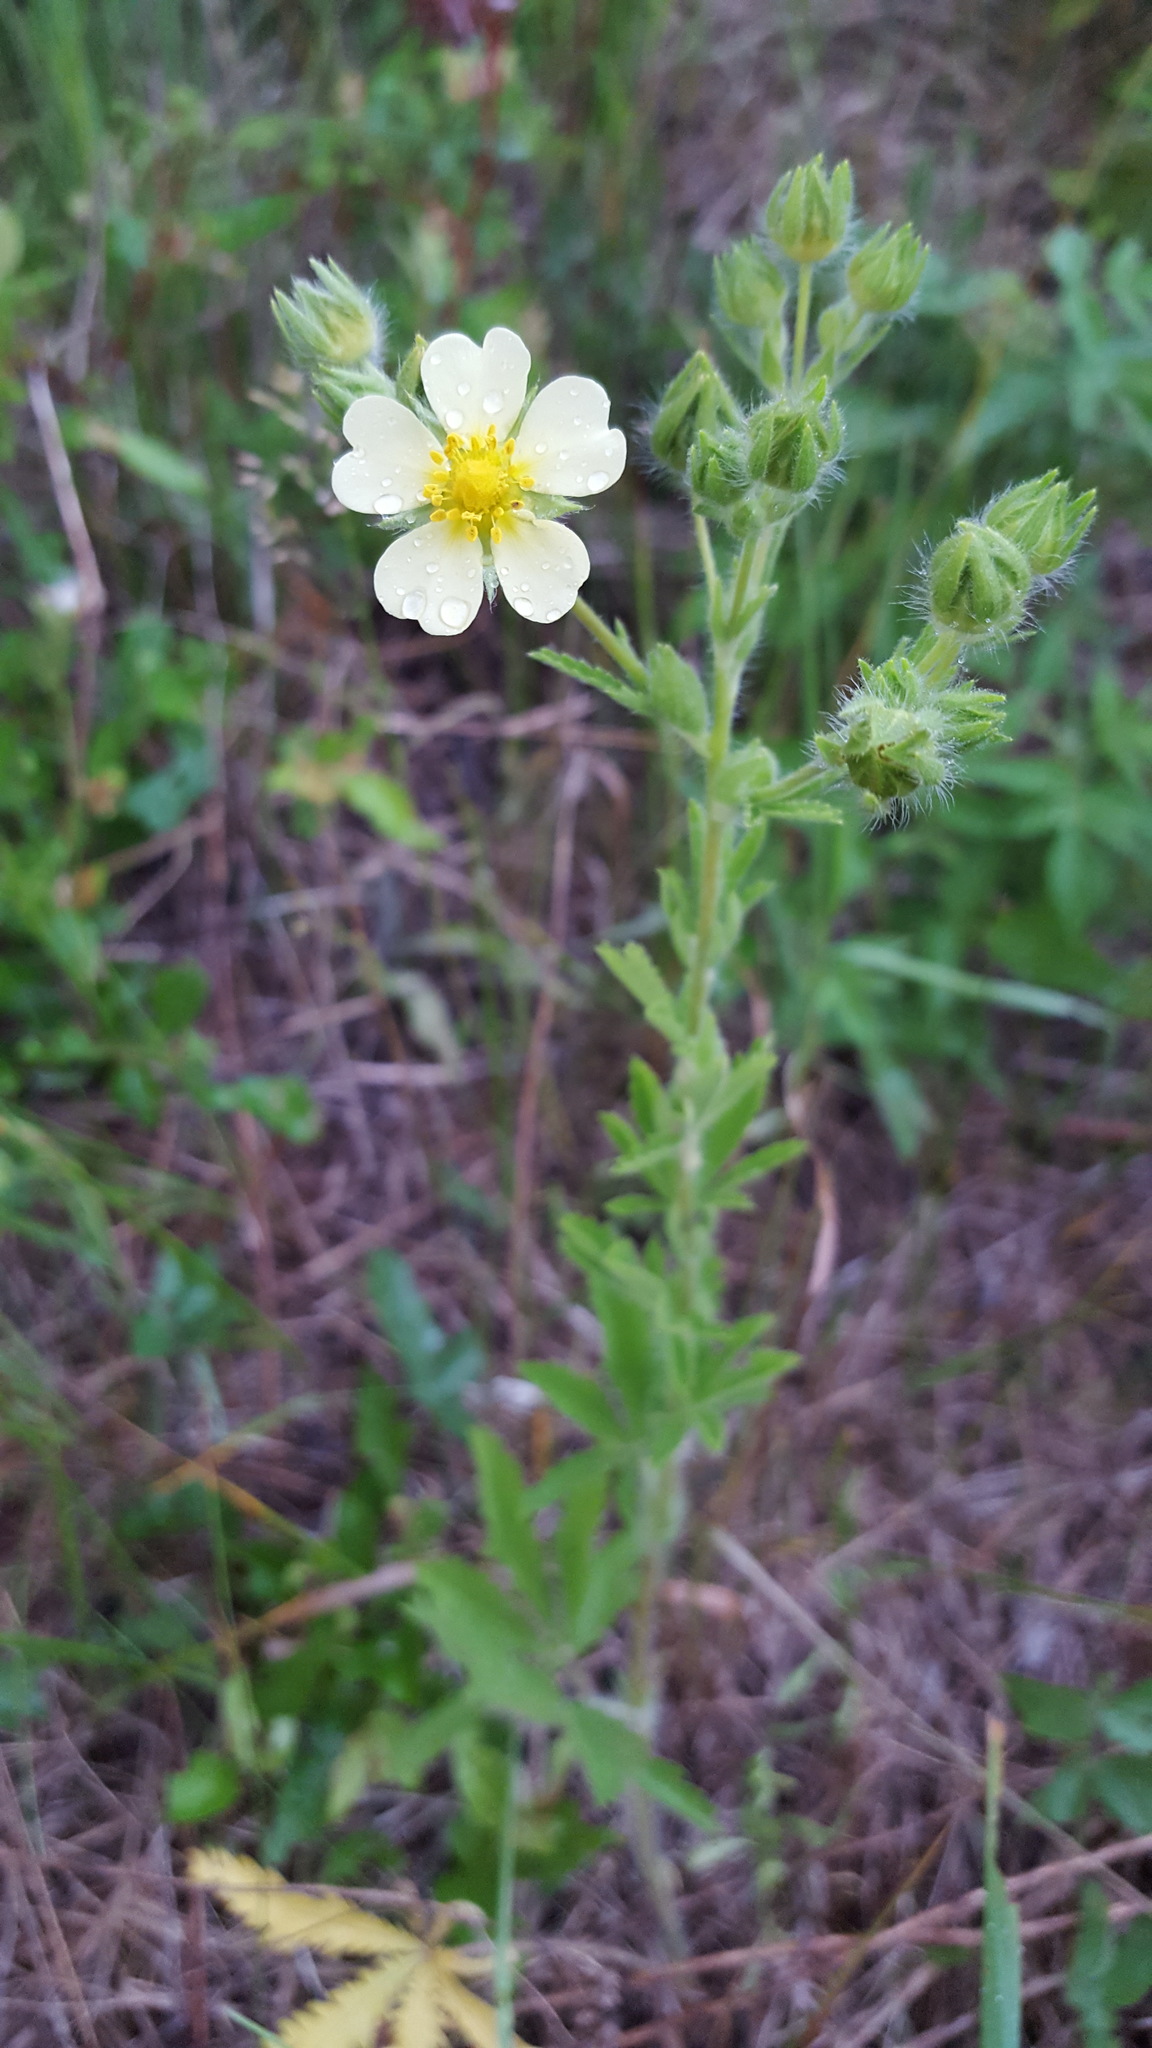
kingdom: Plantae
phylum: Tracheophyta
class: Magnoliopsida
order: Rosales
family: Rosaceae
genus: Potentilla
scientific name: Potentilla recta
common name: Sulphur cinquefoil
